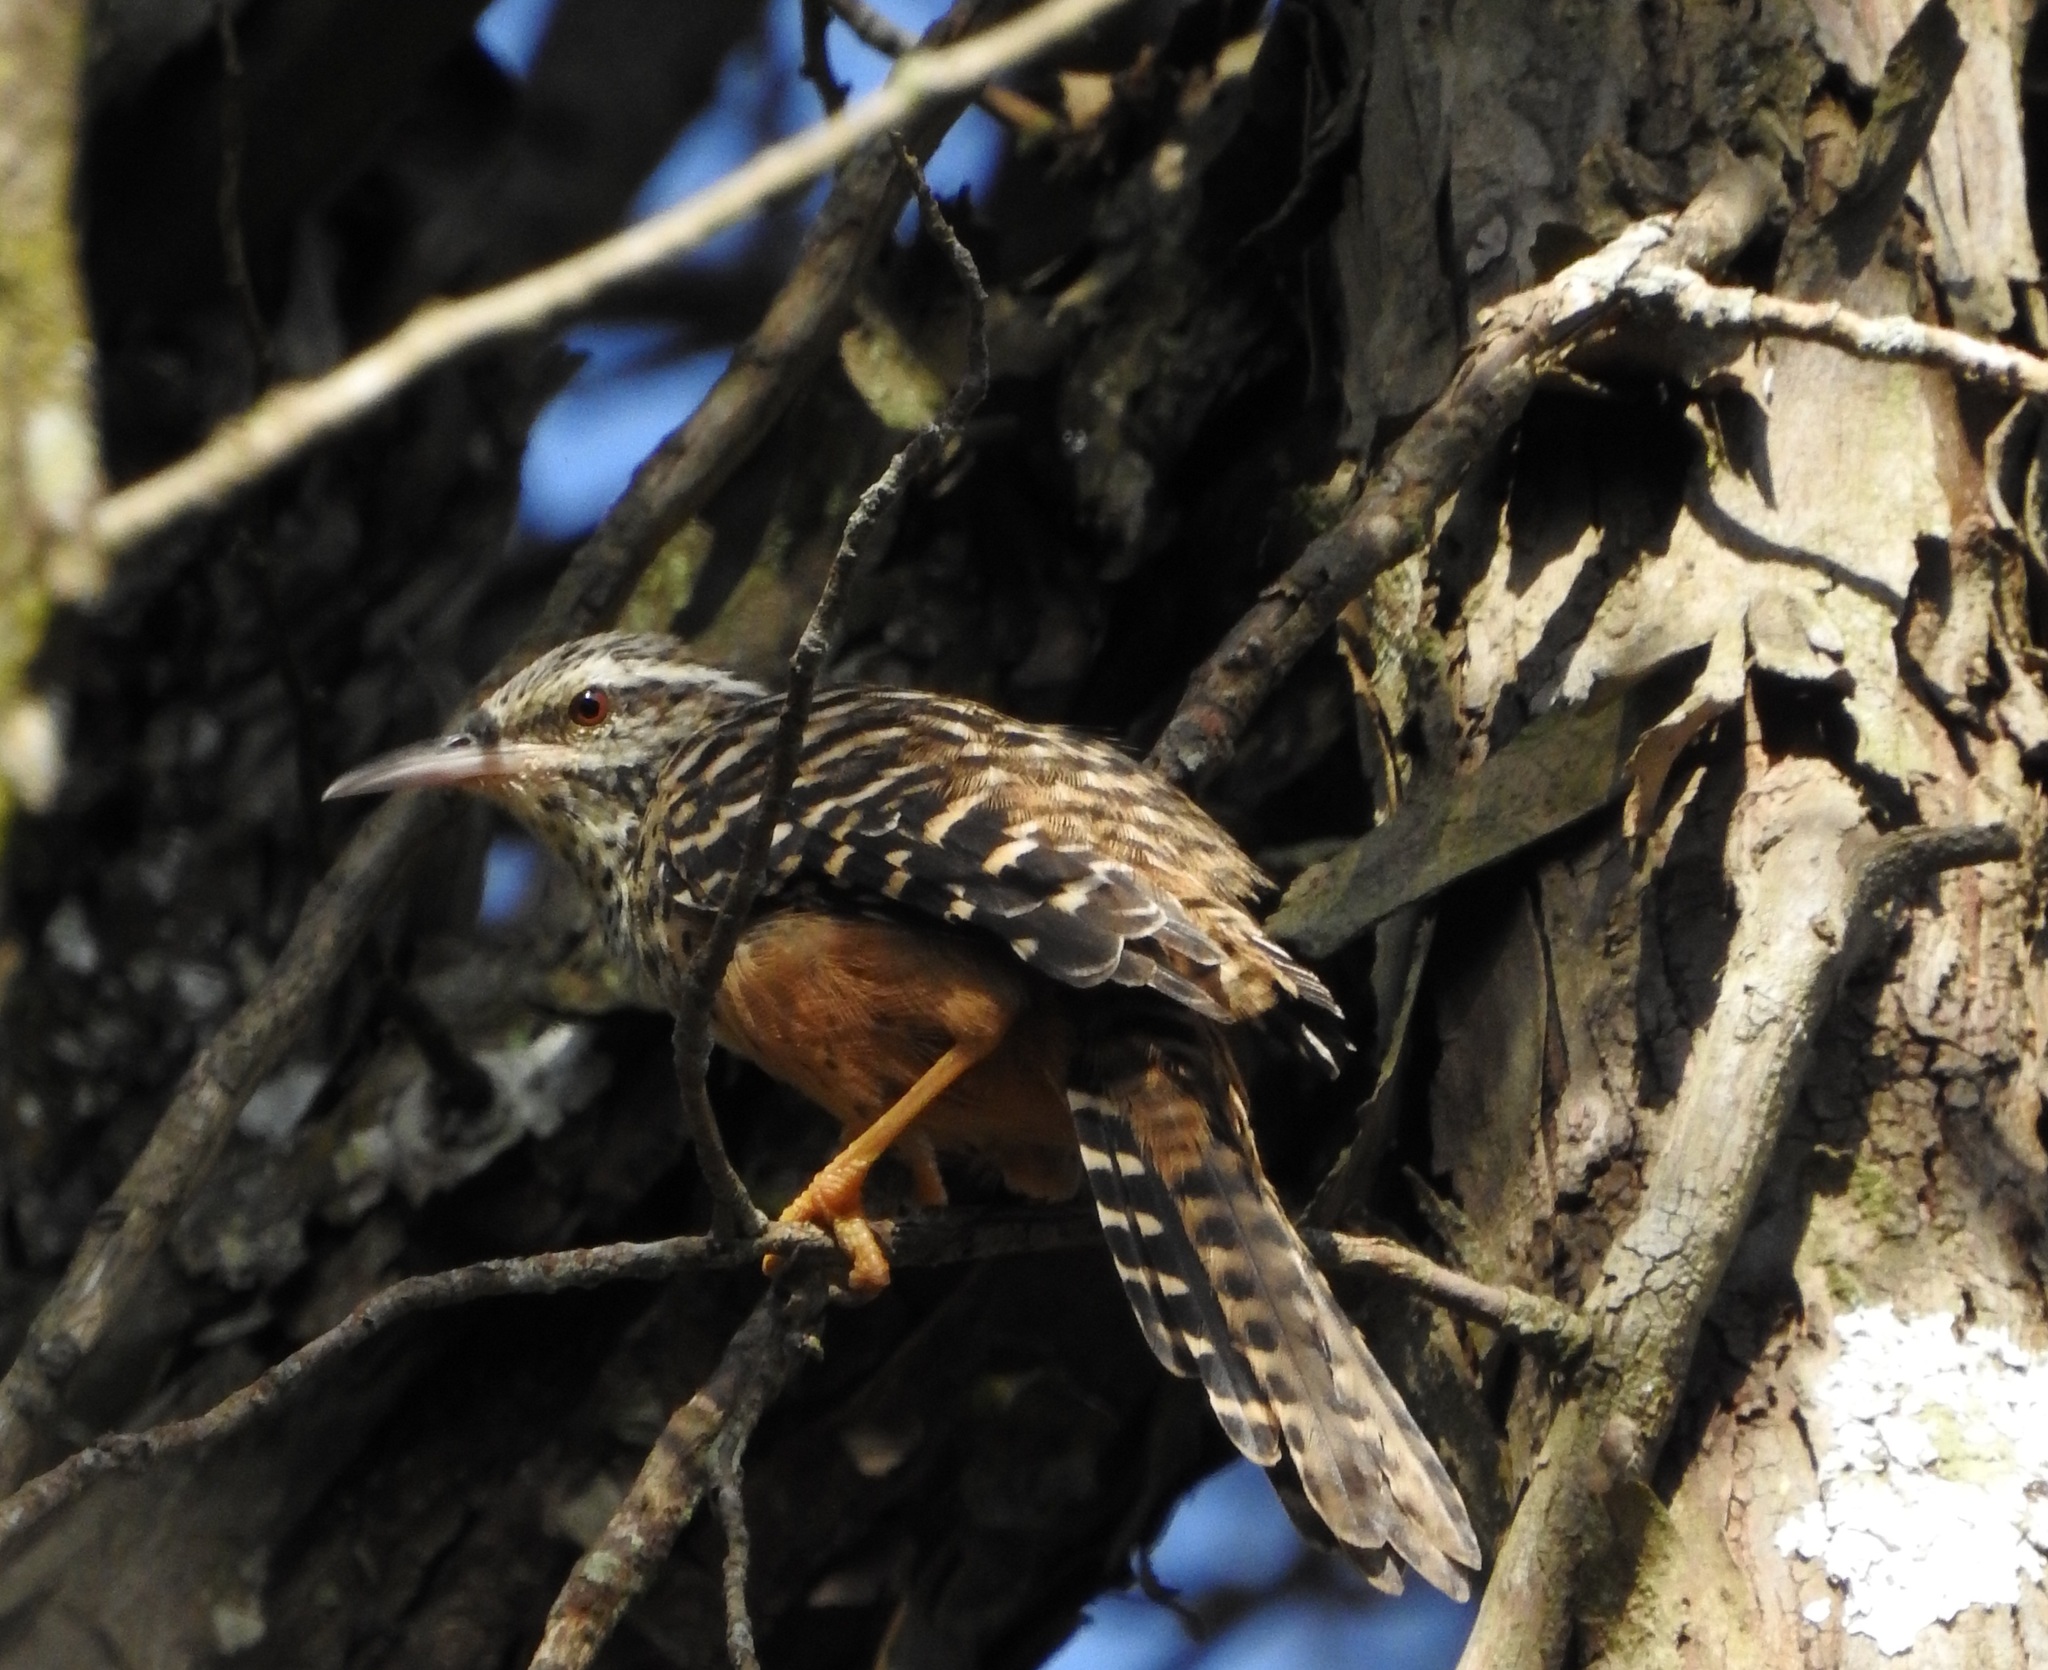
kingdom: Animalia
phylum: Chordata
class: Aves
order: Passeriformes
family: Troglodytidae
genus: Campylorhynchus
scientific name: Campylorhynchus zonatus
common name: Band-backed wren
